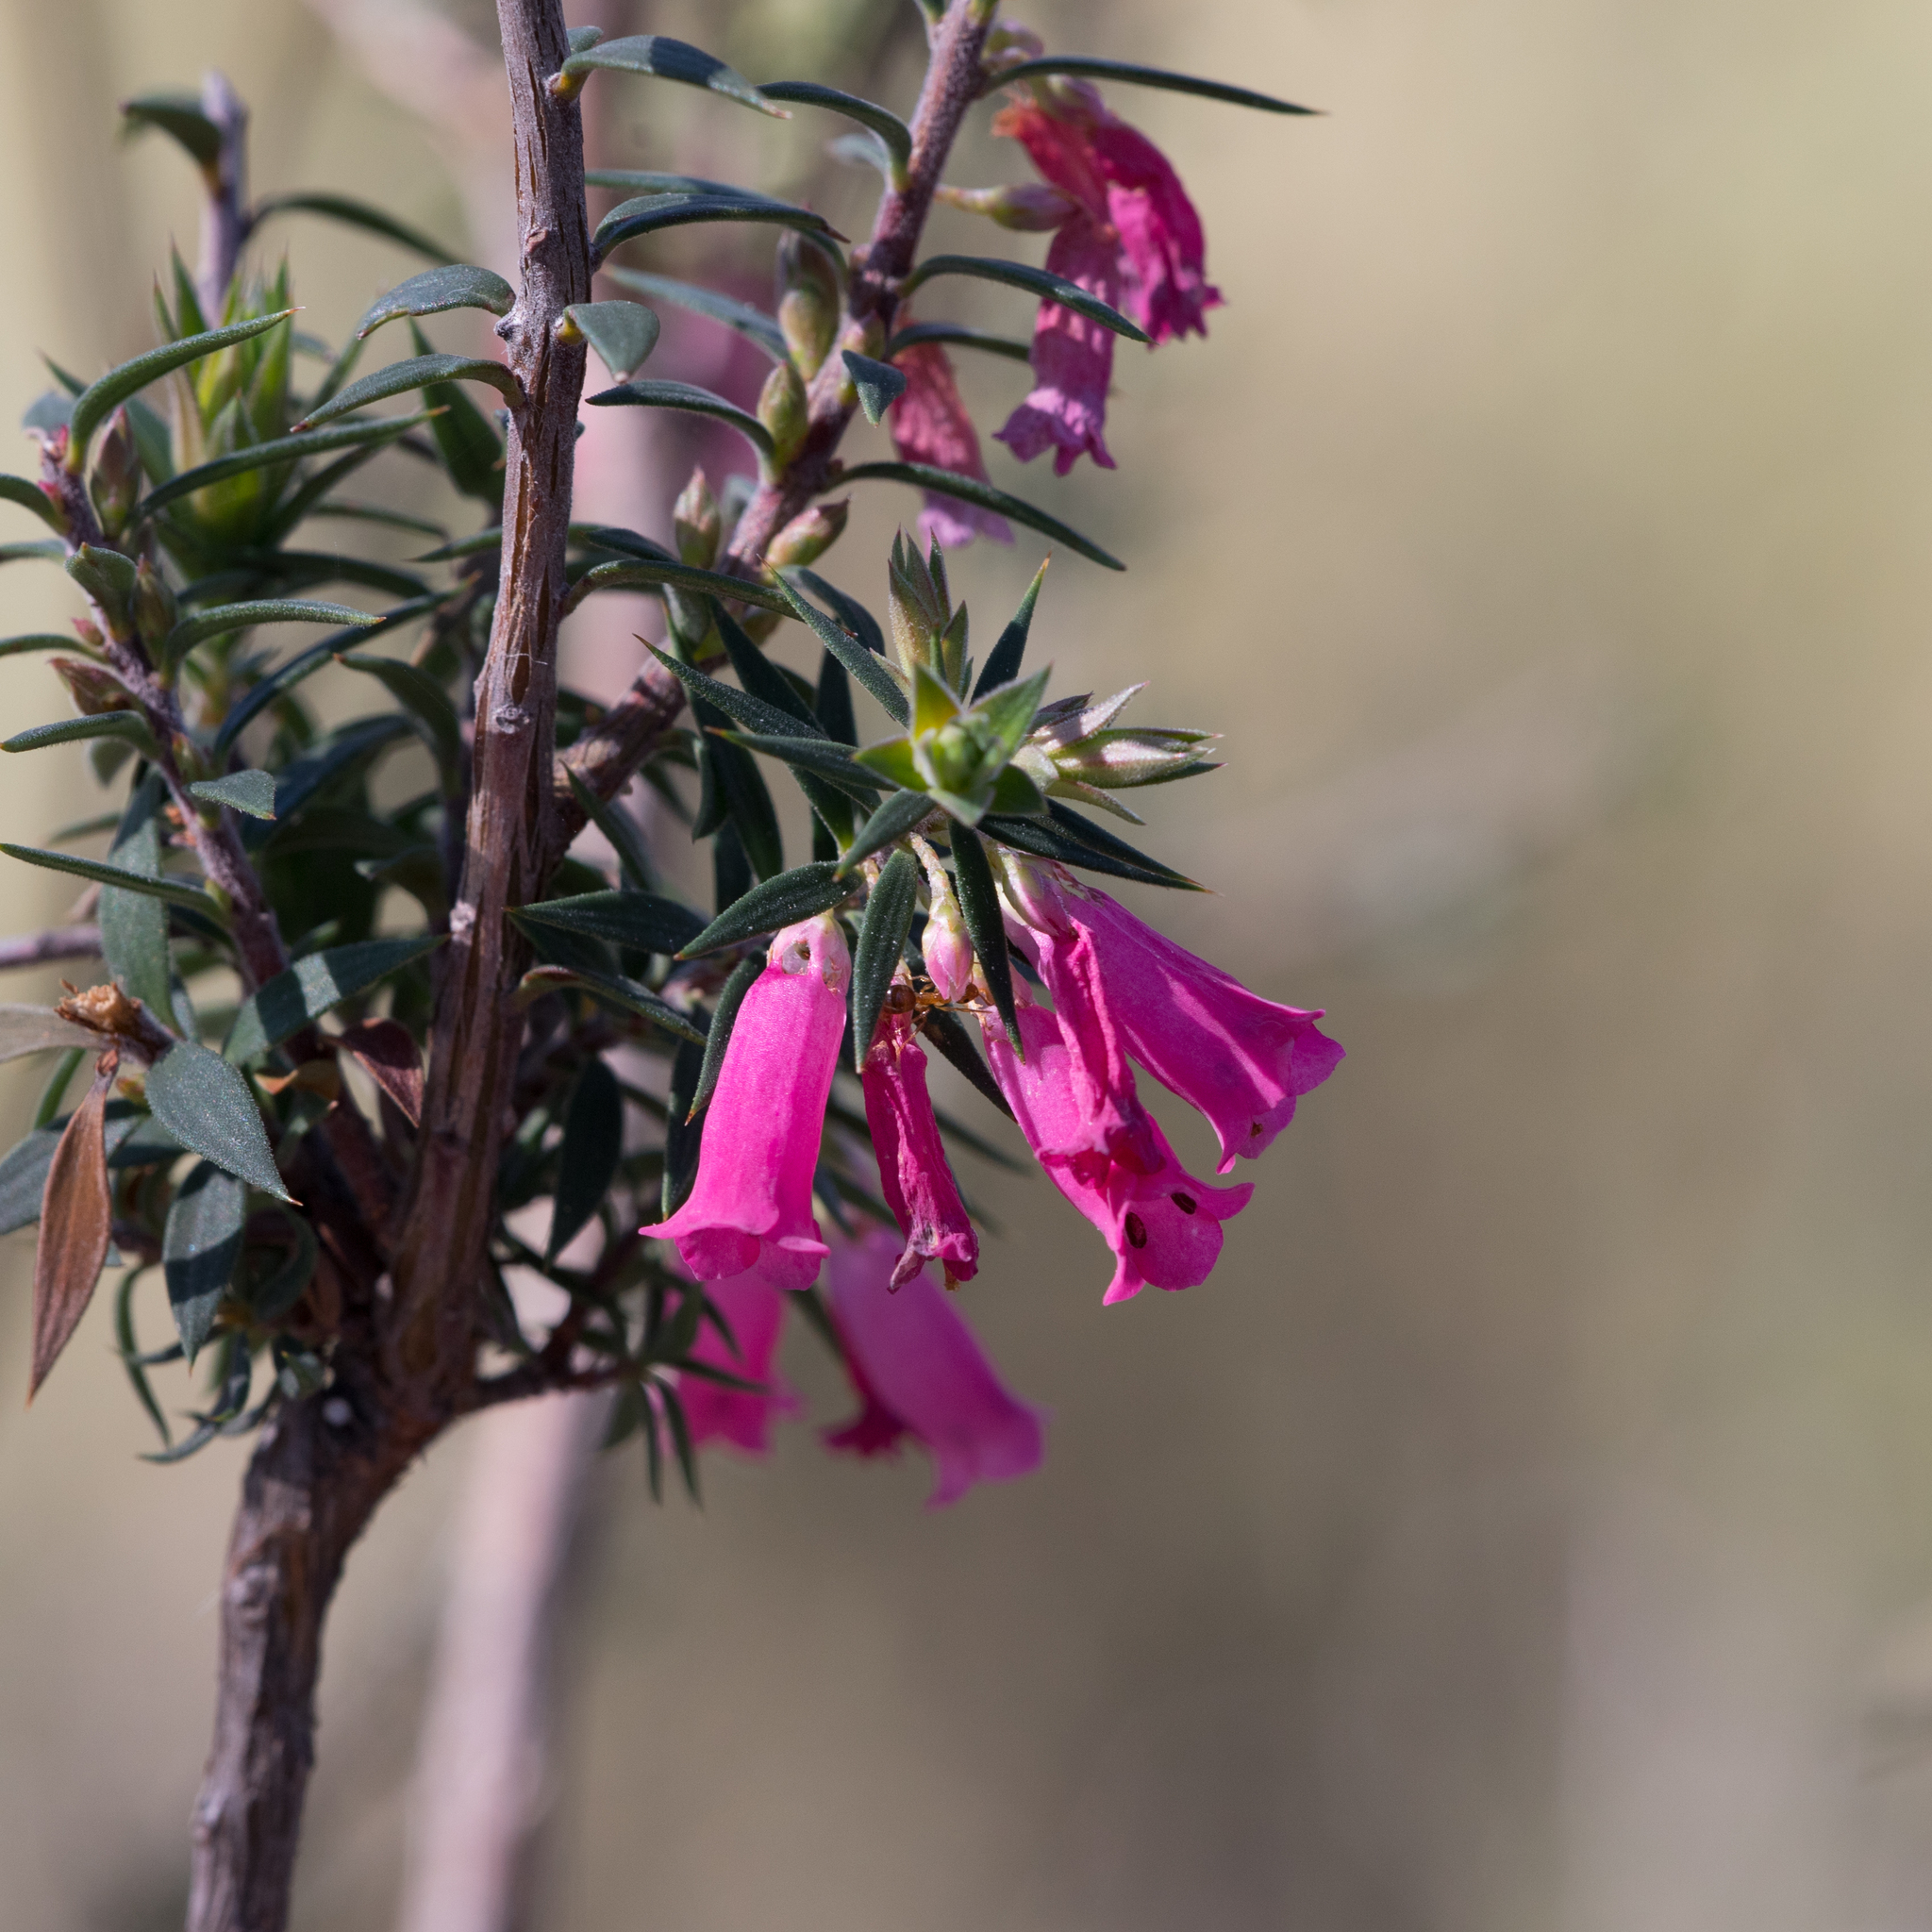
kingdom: Plantae
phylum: Tracheophyta
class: Magnoliopsida
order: Ericales
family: Ericaceae
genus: Epacris
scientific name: Epacris impressa
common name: Common-heath
